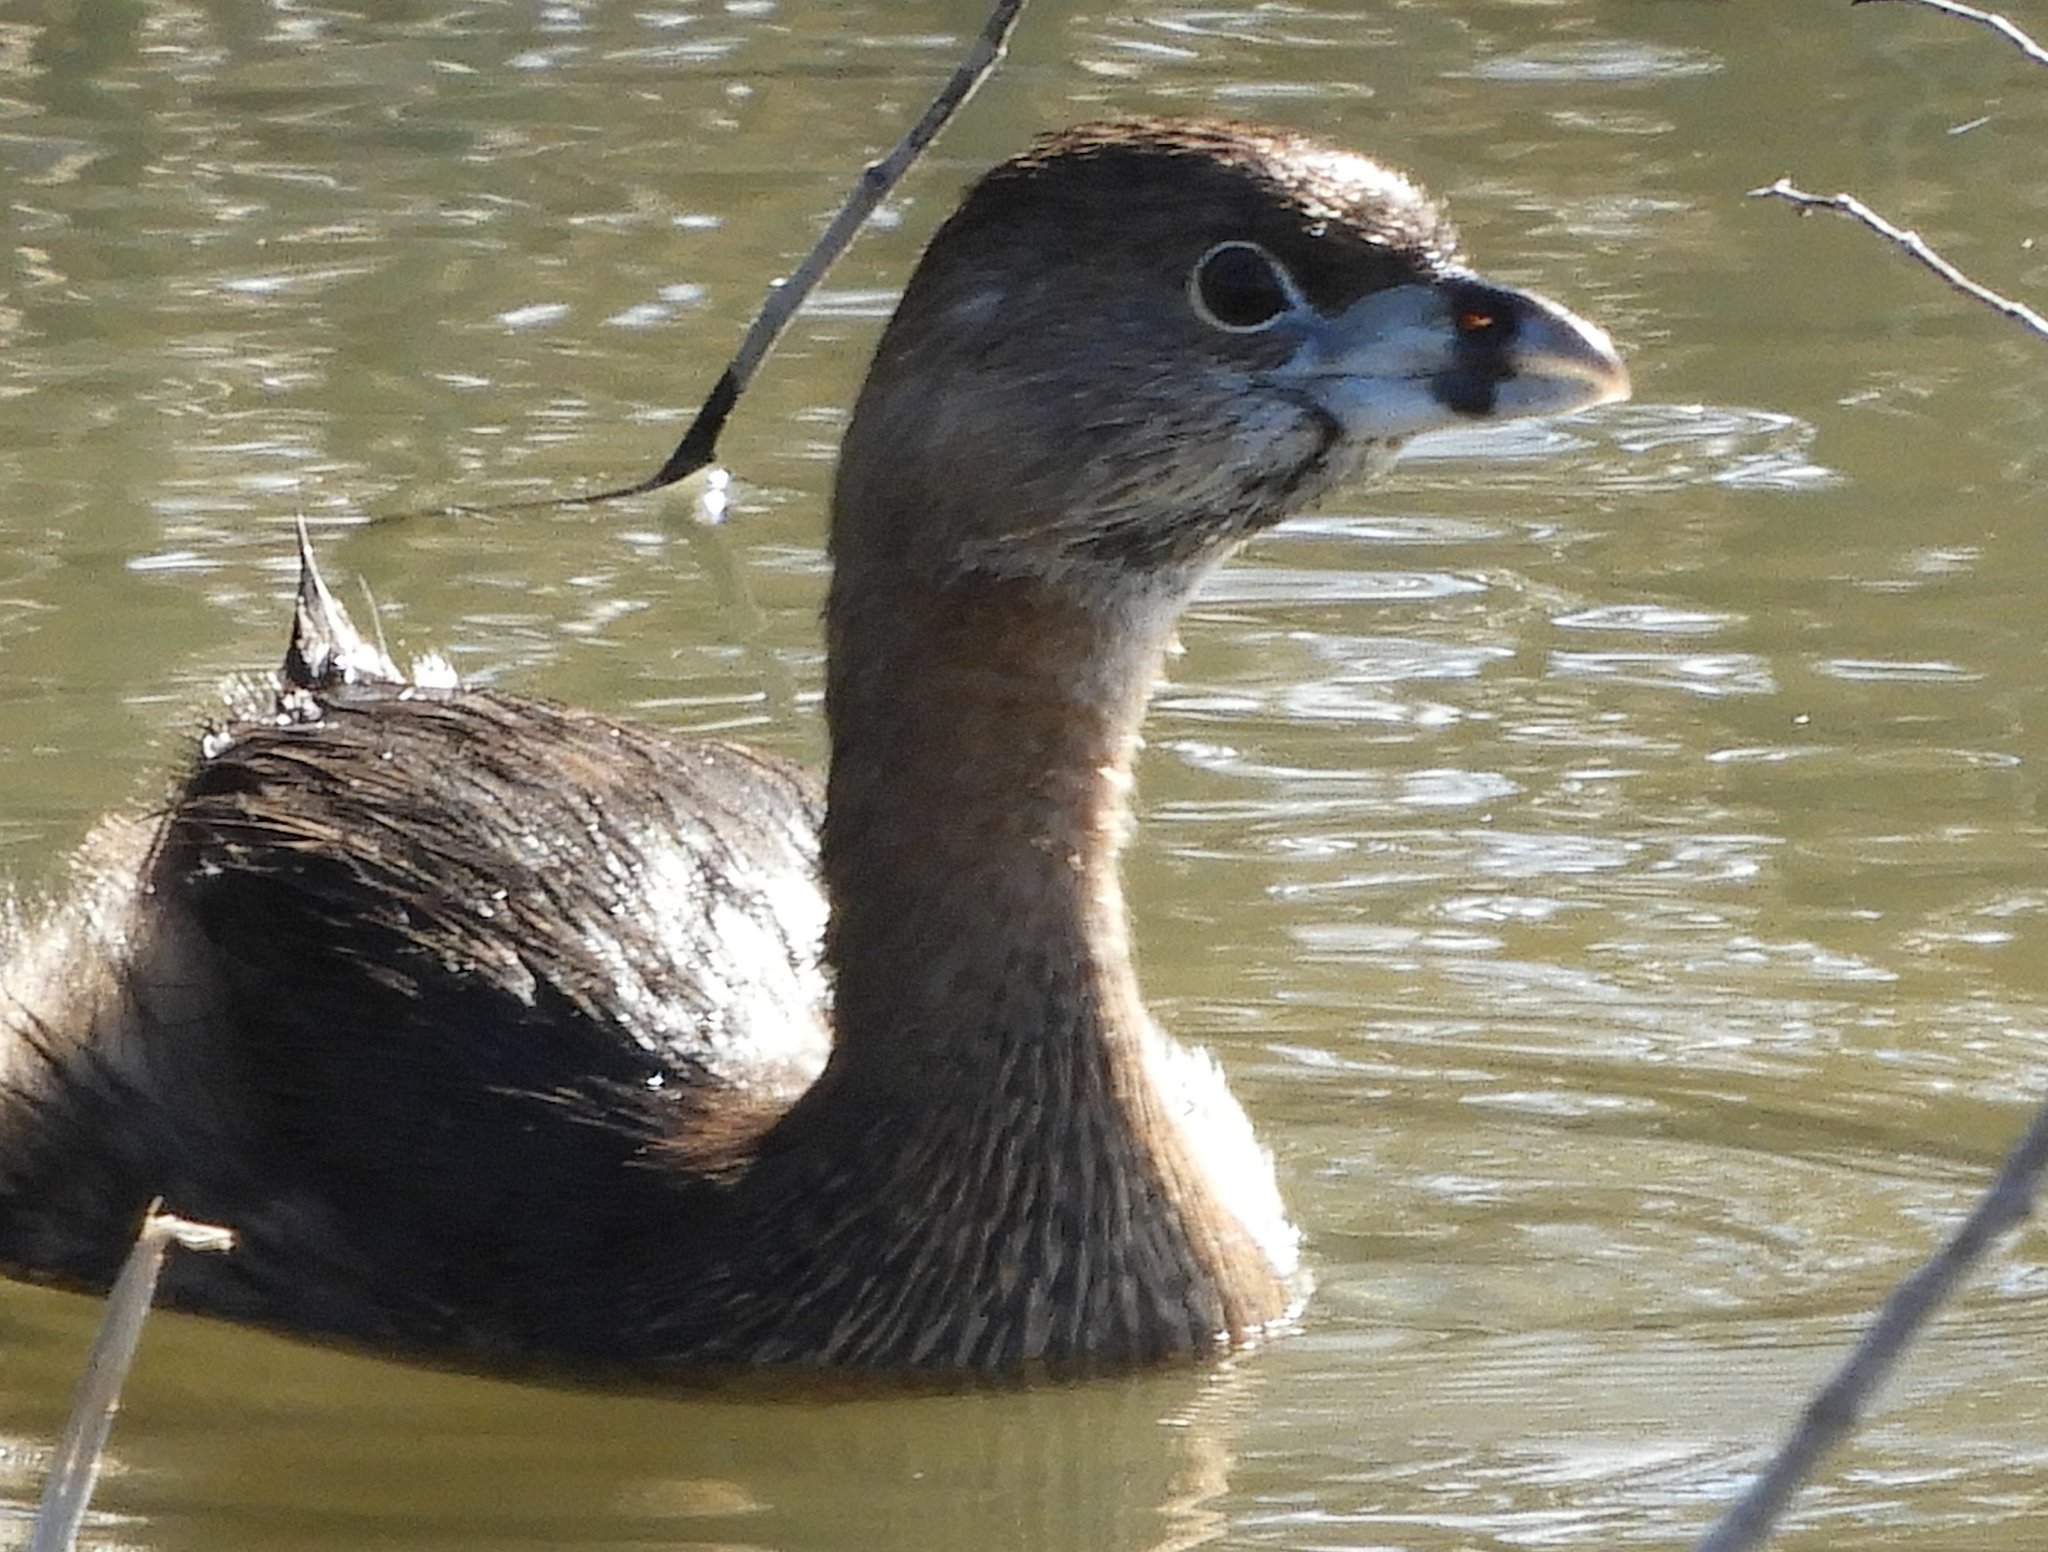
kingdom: Animalia
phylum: Chordata
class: Aves
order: Podicipediformes
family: Podicipedidae
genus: Podilymbus
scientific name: Podilymbus podiceps
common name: Pied-billed grebe
